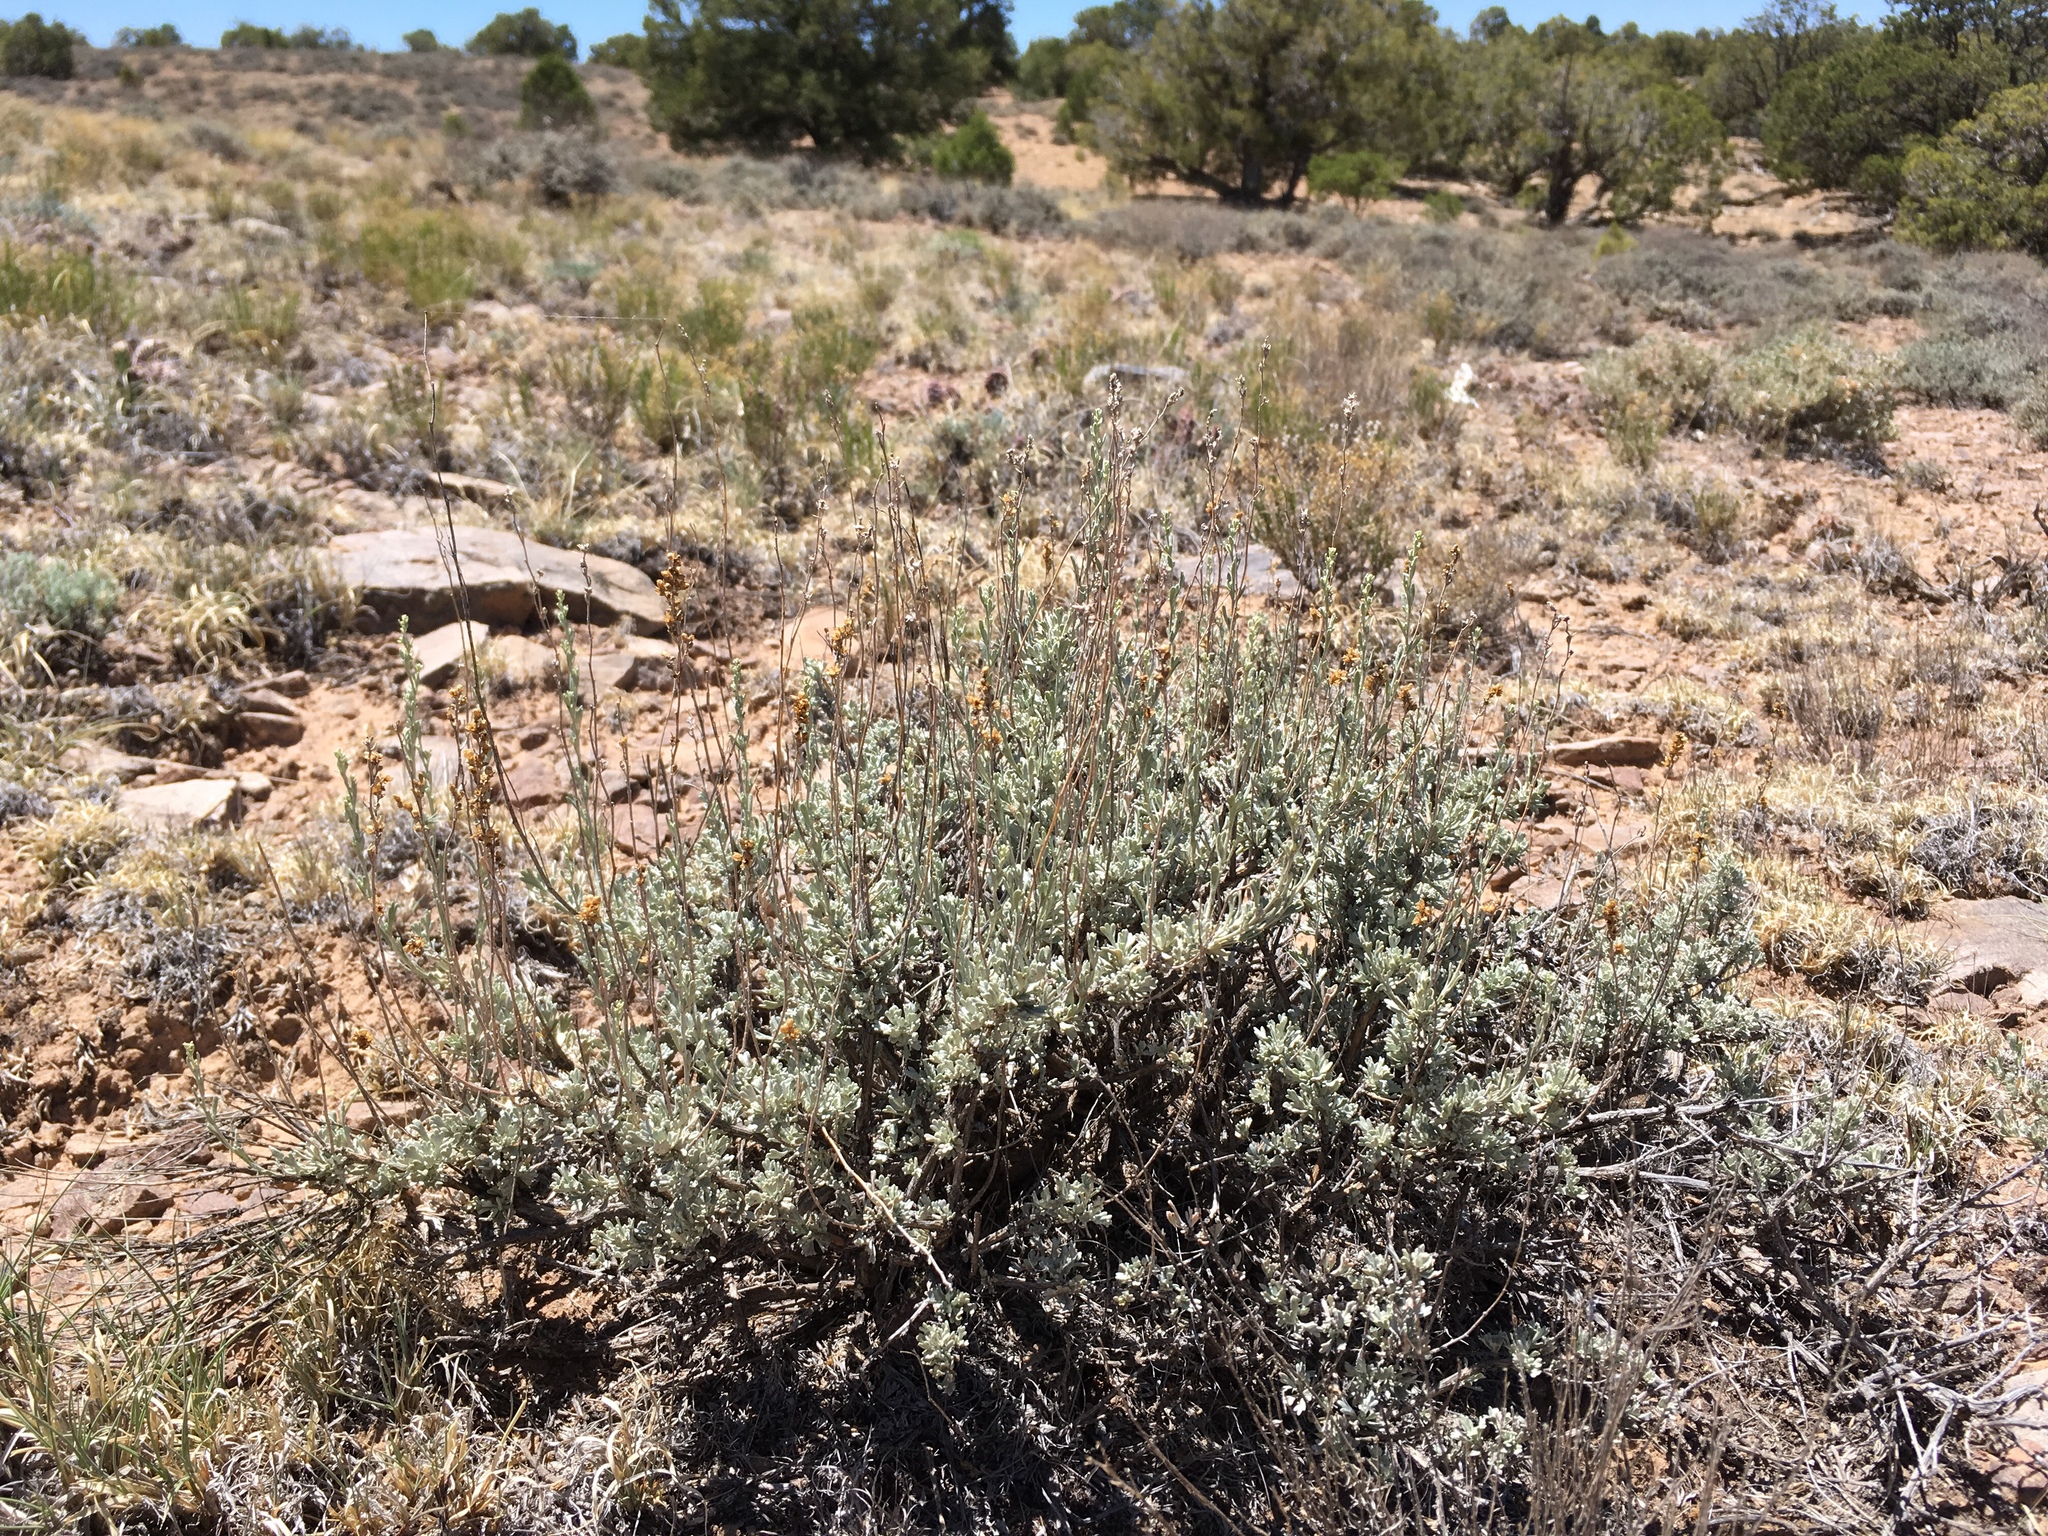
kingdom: Plantae
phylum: Tracheophyta
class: Magnoliopsida
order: Asterales
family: Asteraceae
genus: Artemisia
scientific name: Artemisia nova
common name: Black-sage
